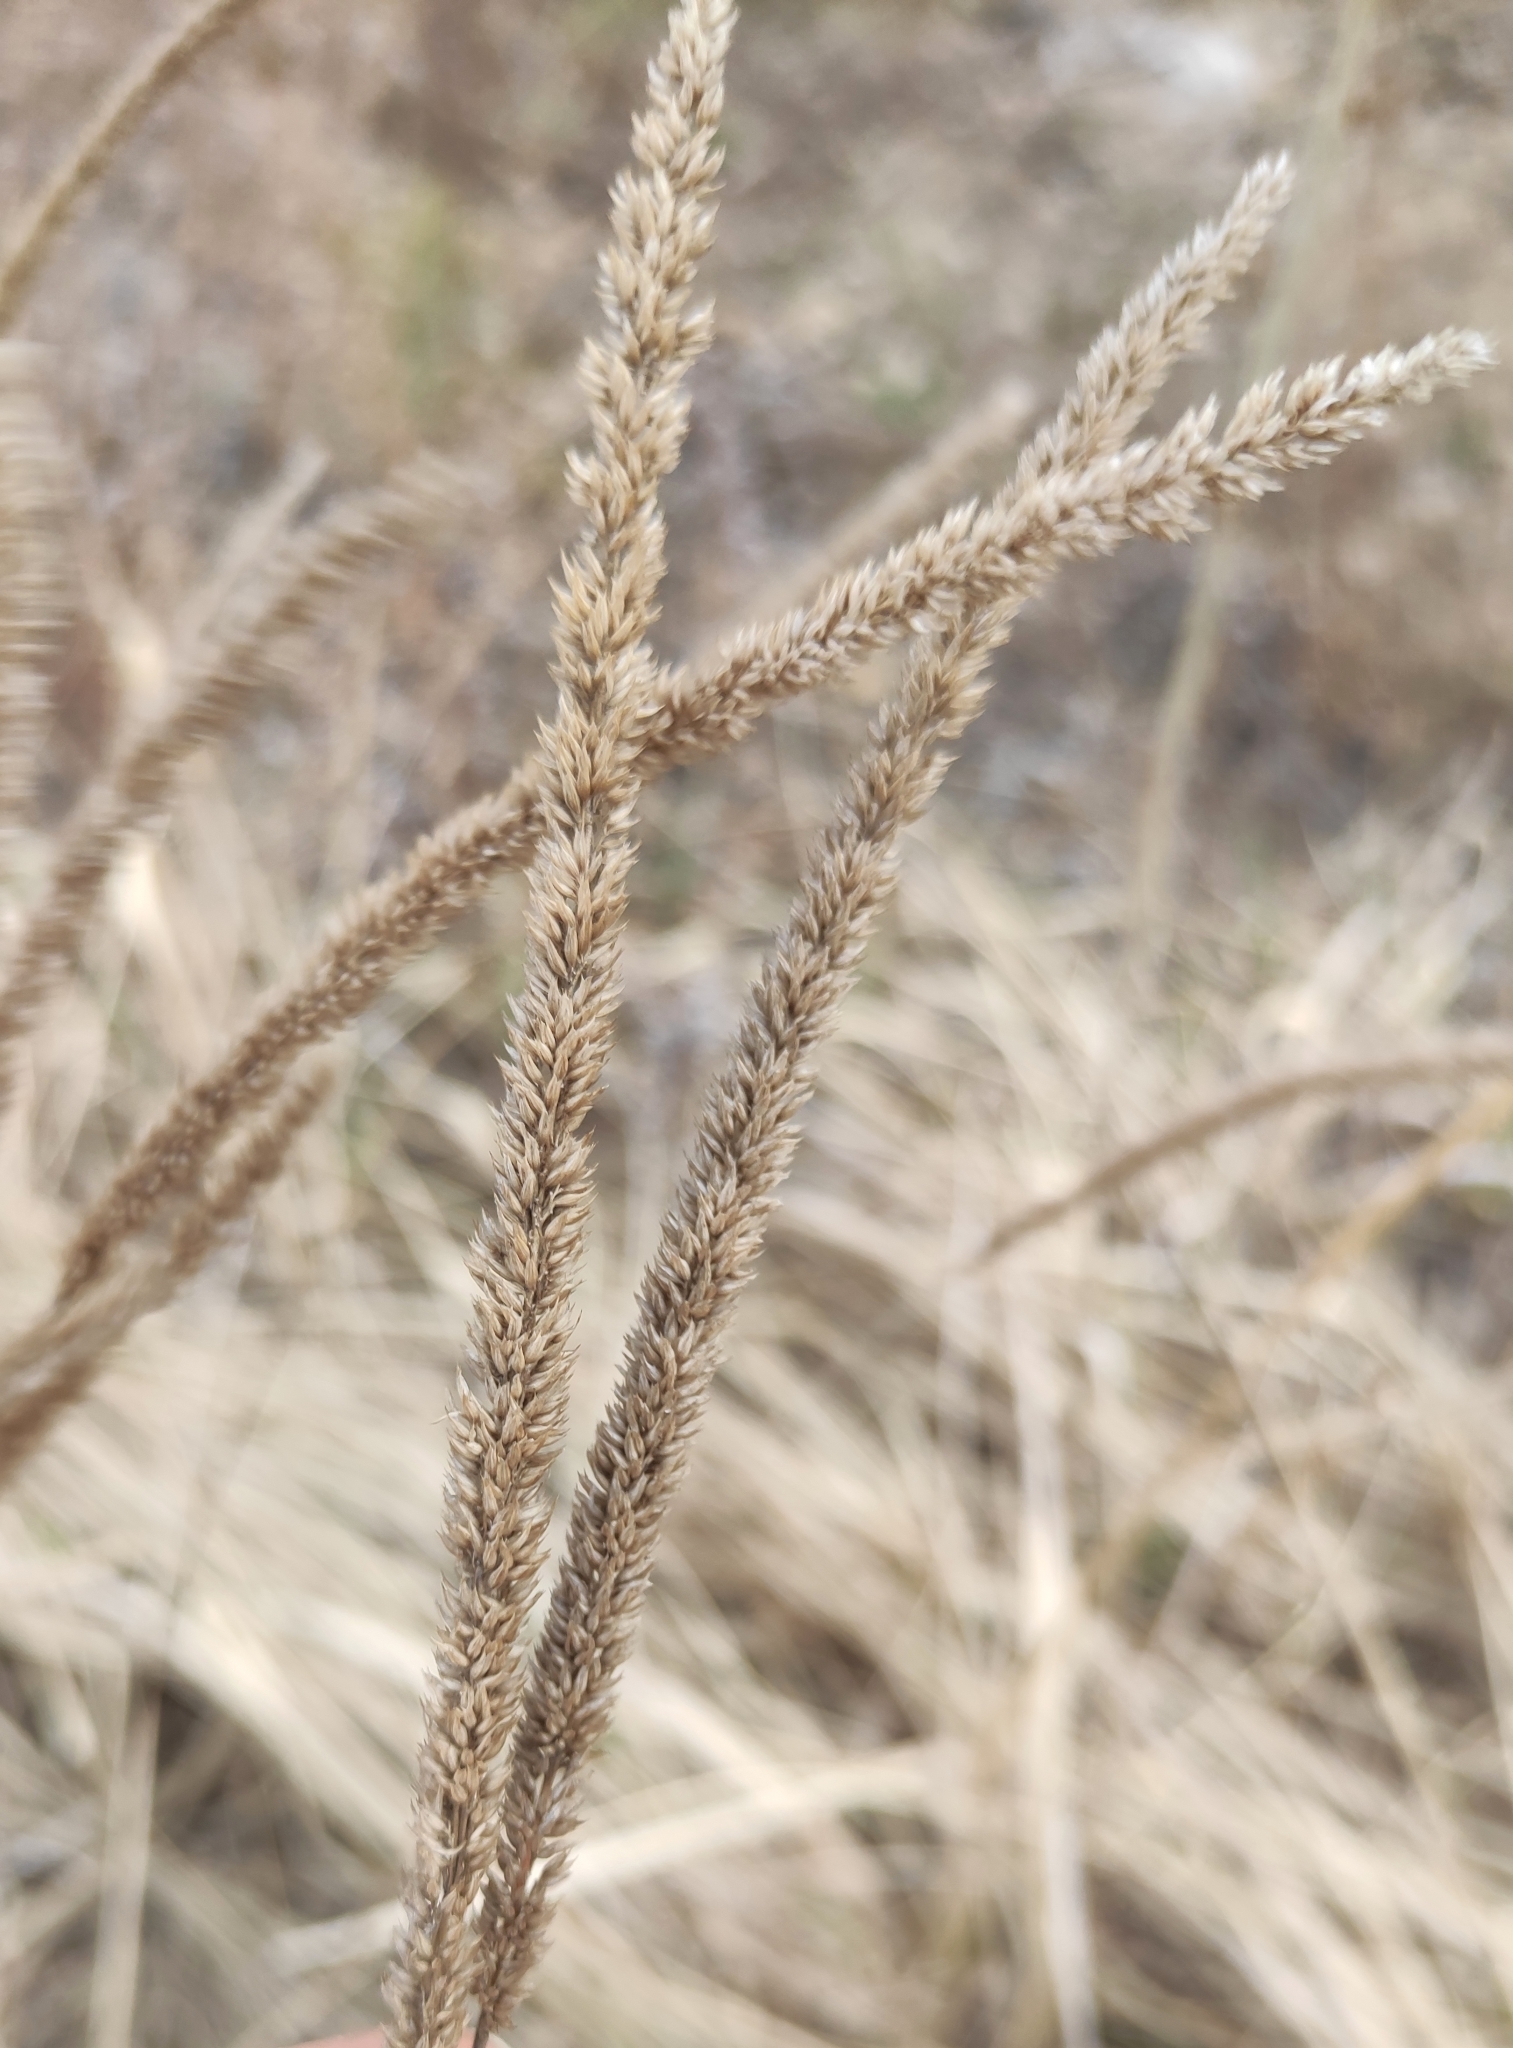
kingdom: Plantae
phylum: Tracheophyta
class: Liliopsida
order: Poales
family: Poaceae
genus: Phleum
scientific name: Phleum phleoides
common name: Purple-stem cat's-tail
